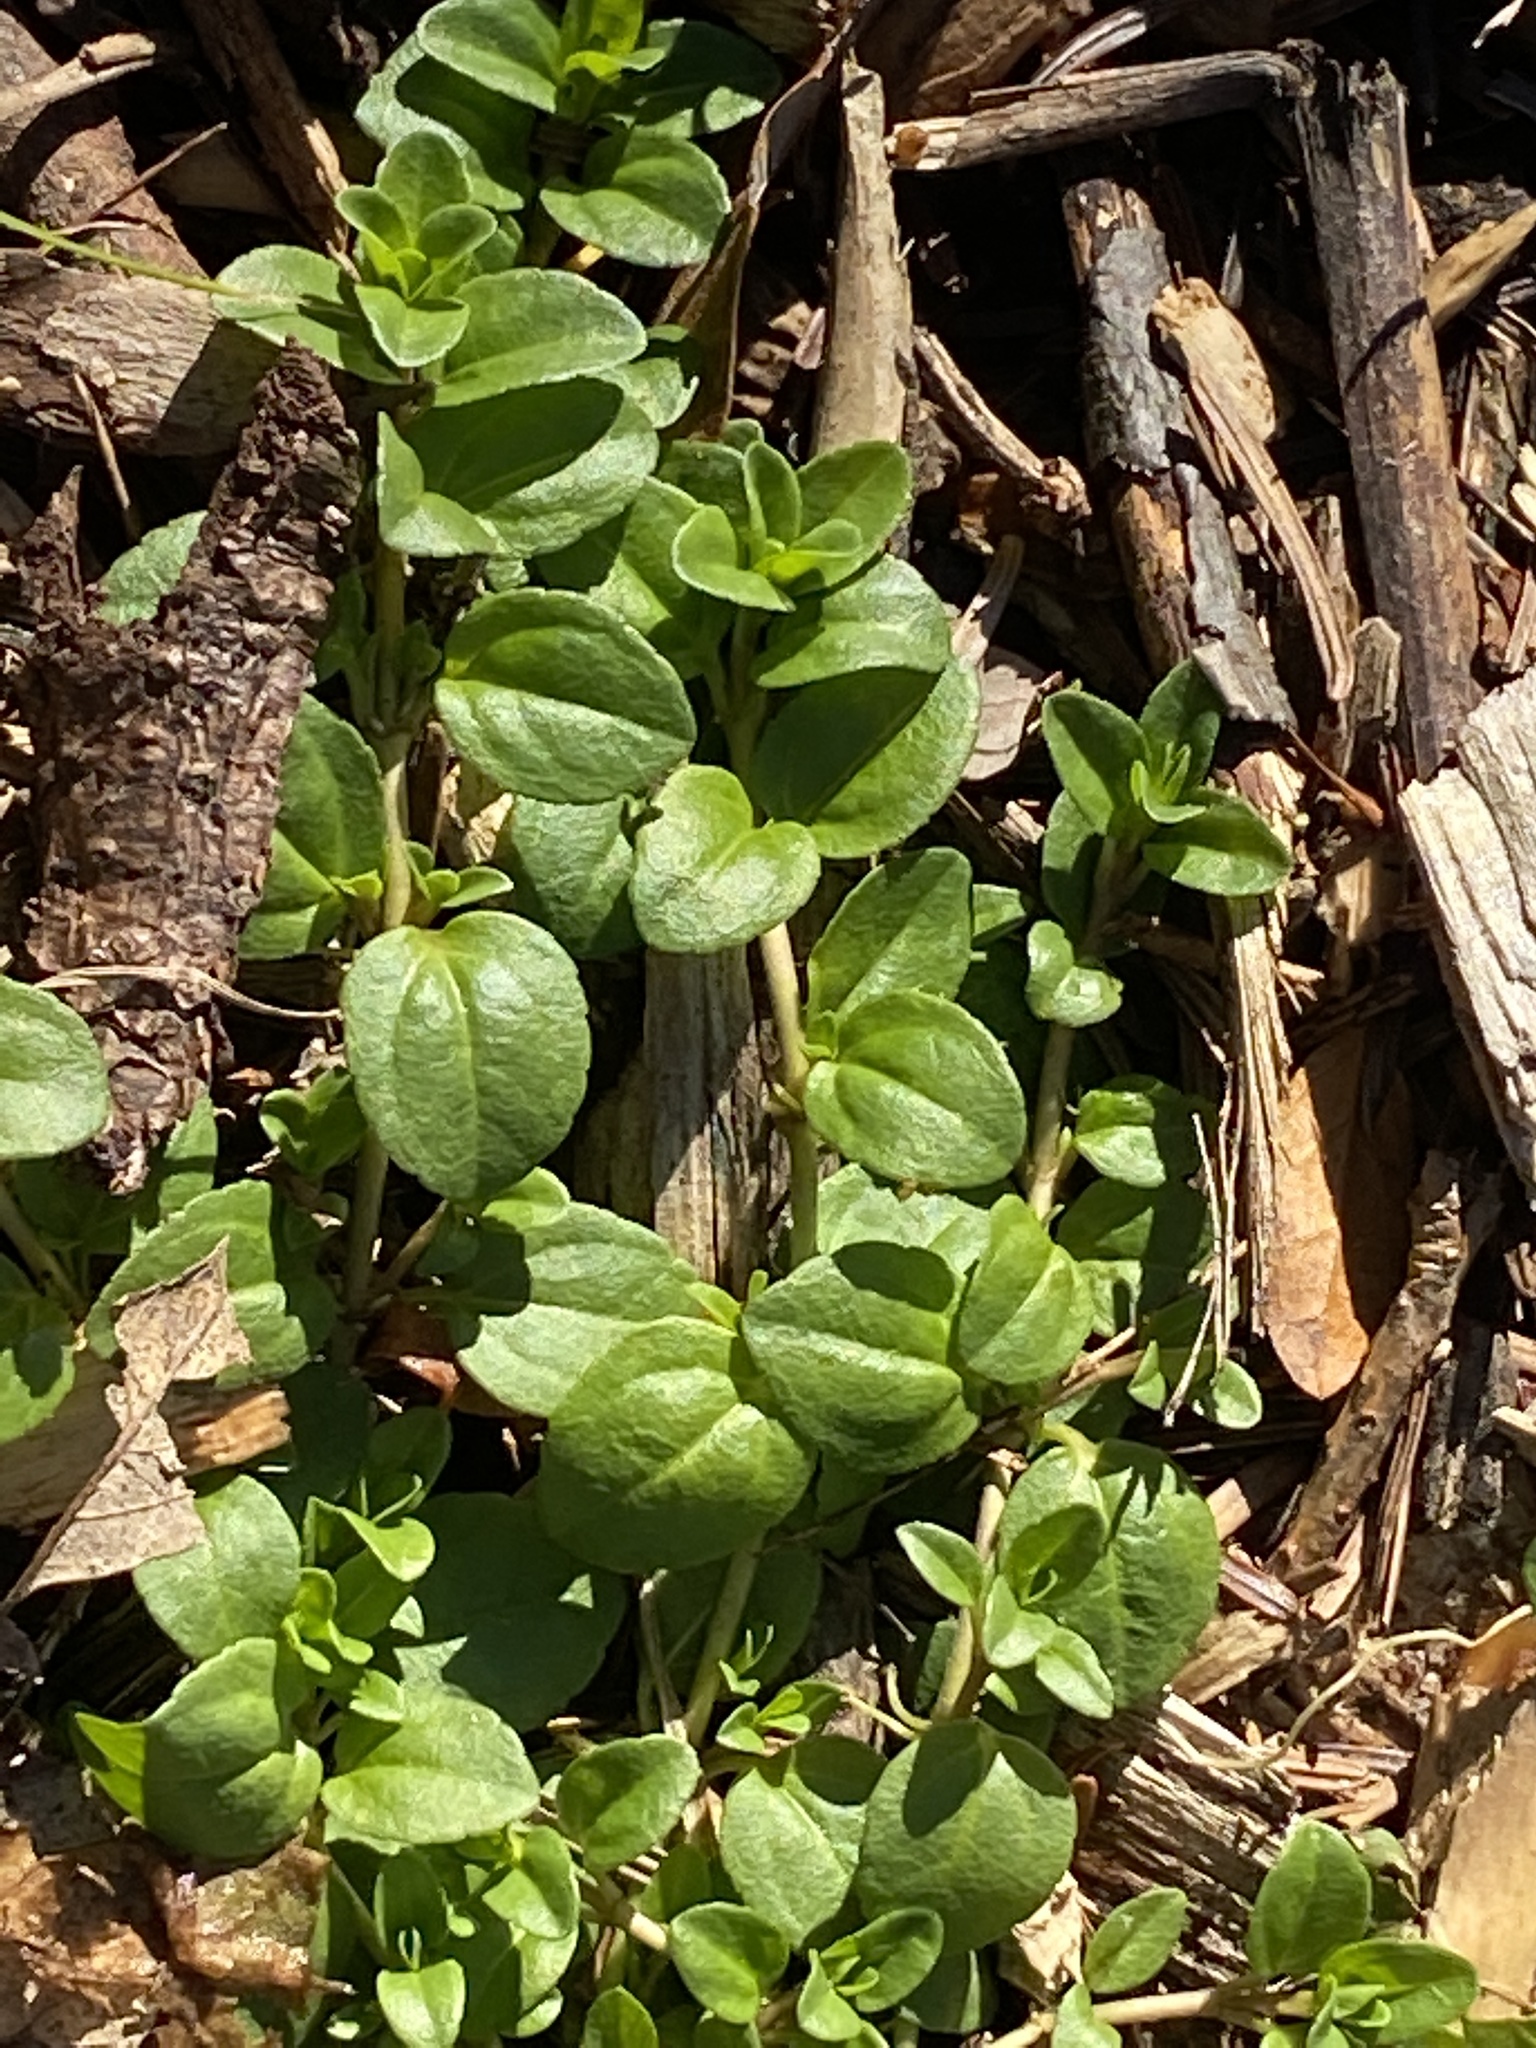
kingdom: Plantae
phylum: Tracheophyta
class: Magnoliopsida
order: Lamiales
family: Plantaginaceae
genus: Veronica
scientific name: Veronica serpyllifolia
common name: Thyme-leaved speedwell
